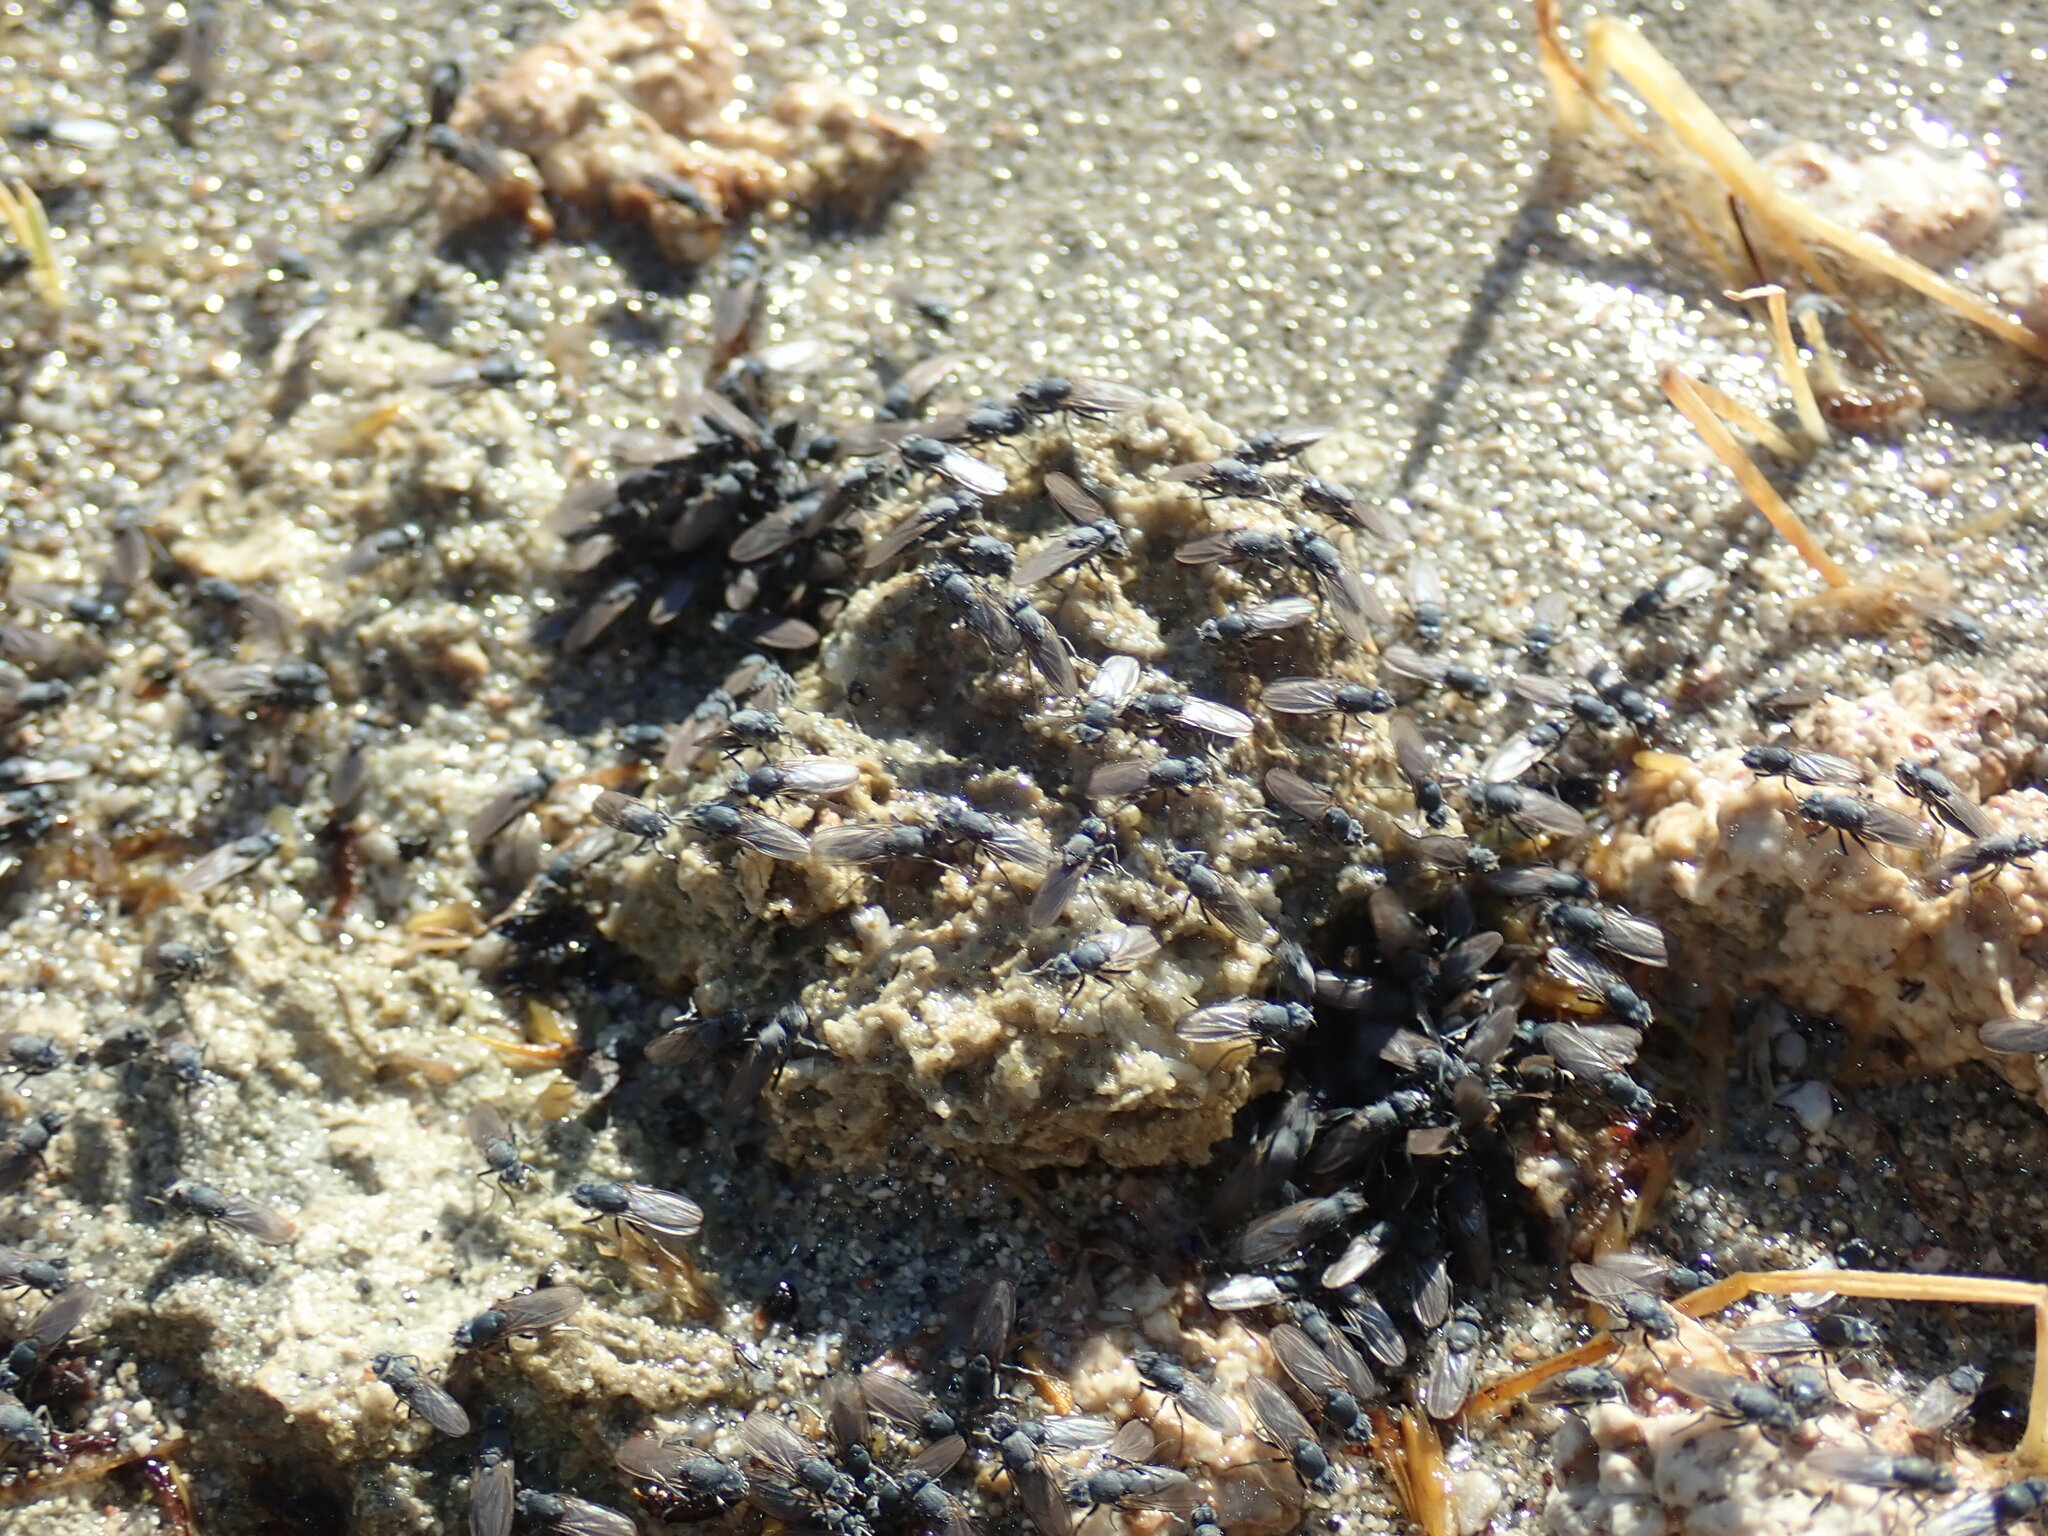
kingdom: Animalia
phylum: Arthropoda
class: Insecta
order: Diptera
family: Ephydridae
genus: Cirrula
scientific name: Cirrula hians
